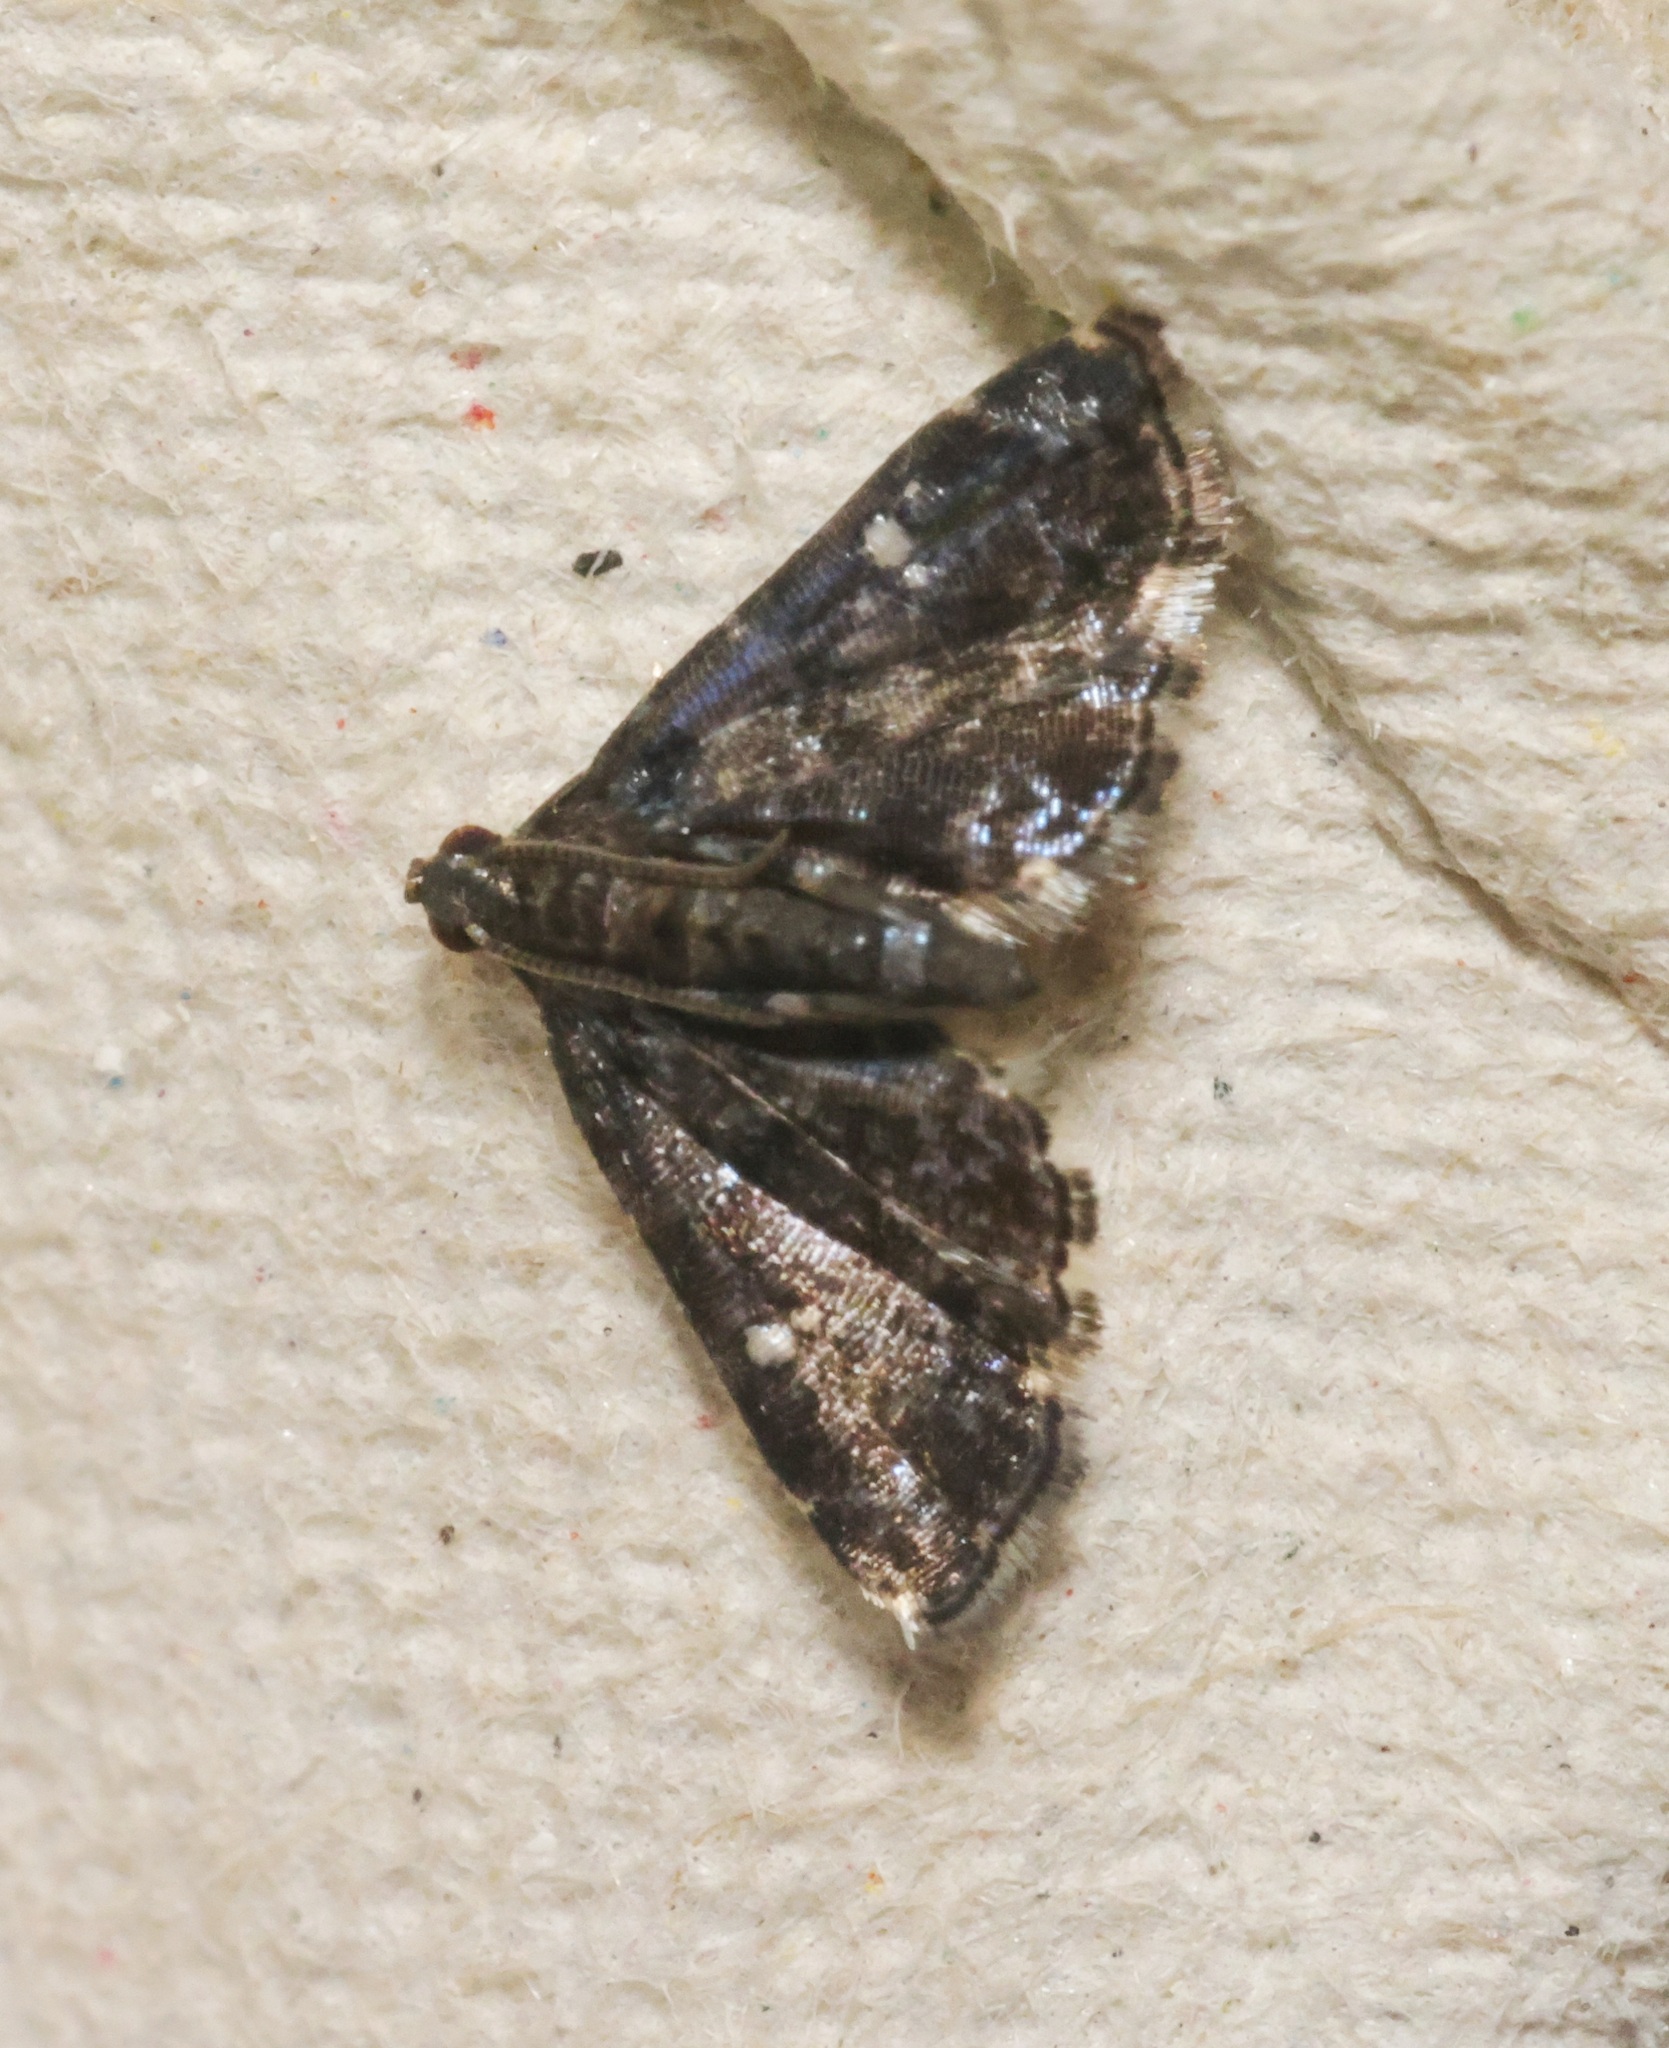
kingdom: Animalia
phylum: Arthropoda
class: Insecta
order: Lepidoptera
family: Pyralidae
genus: Drosophantis
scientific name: Drosophantis caeruleata
